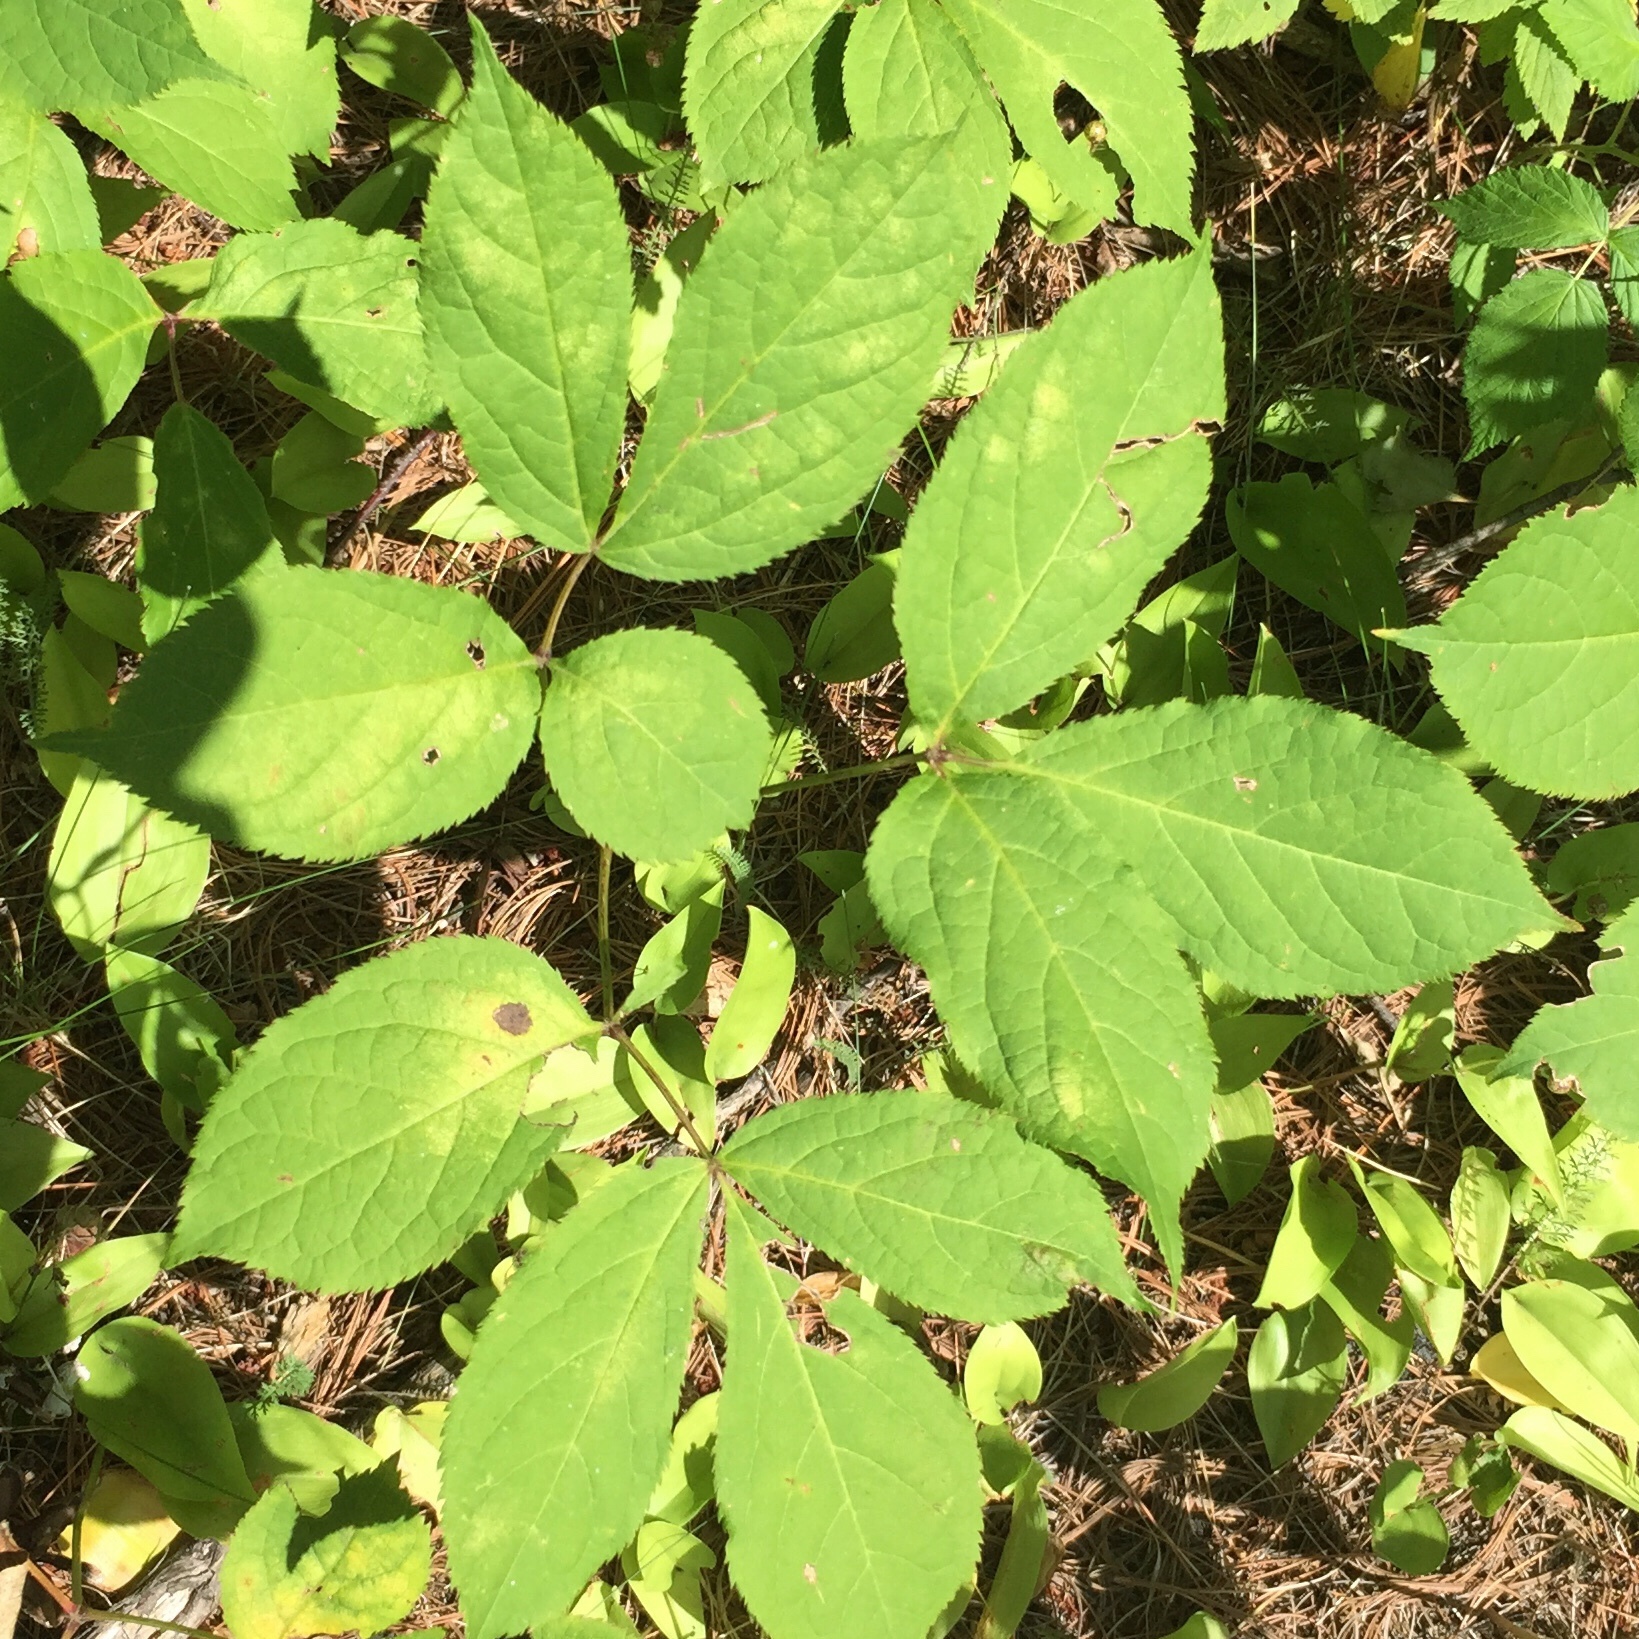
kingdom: Plantae
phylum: Tracheophyta
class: Magnoliopsida
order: Apiales
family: Araliaceae
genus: Aralia
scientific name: Aralia nudicaulis
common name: Wild sarsaparilla
